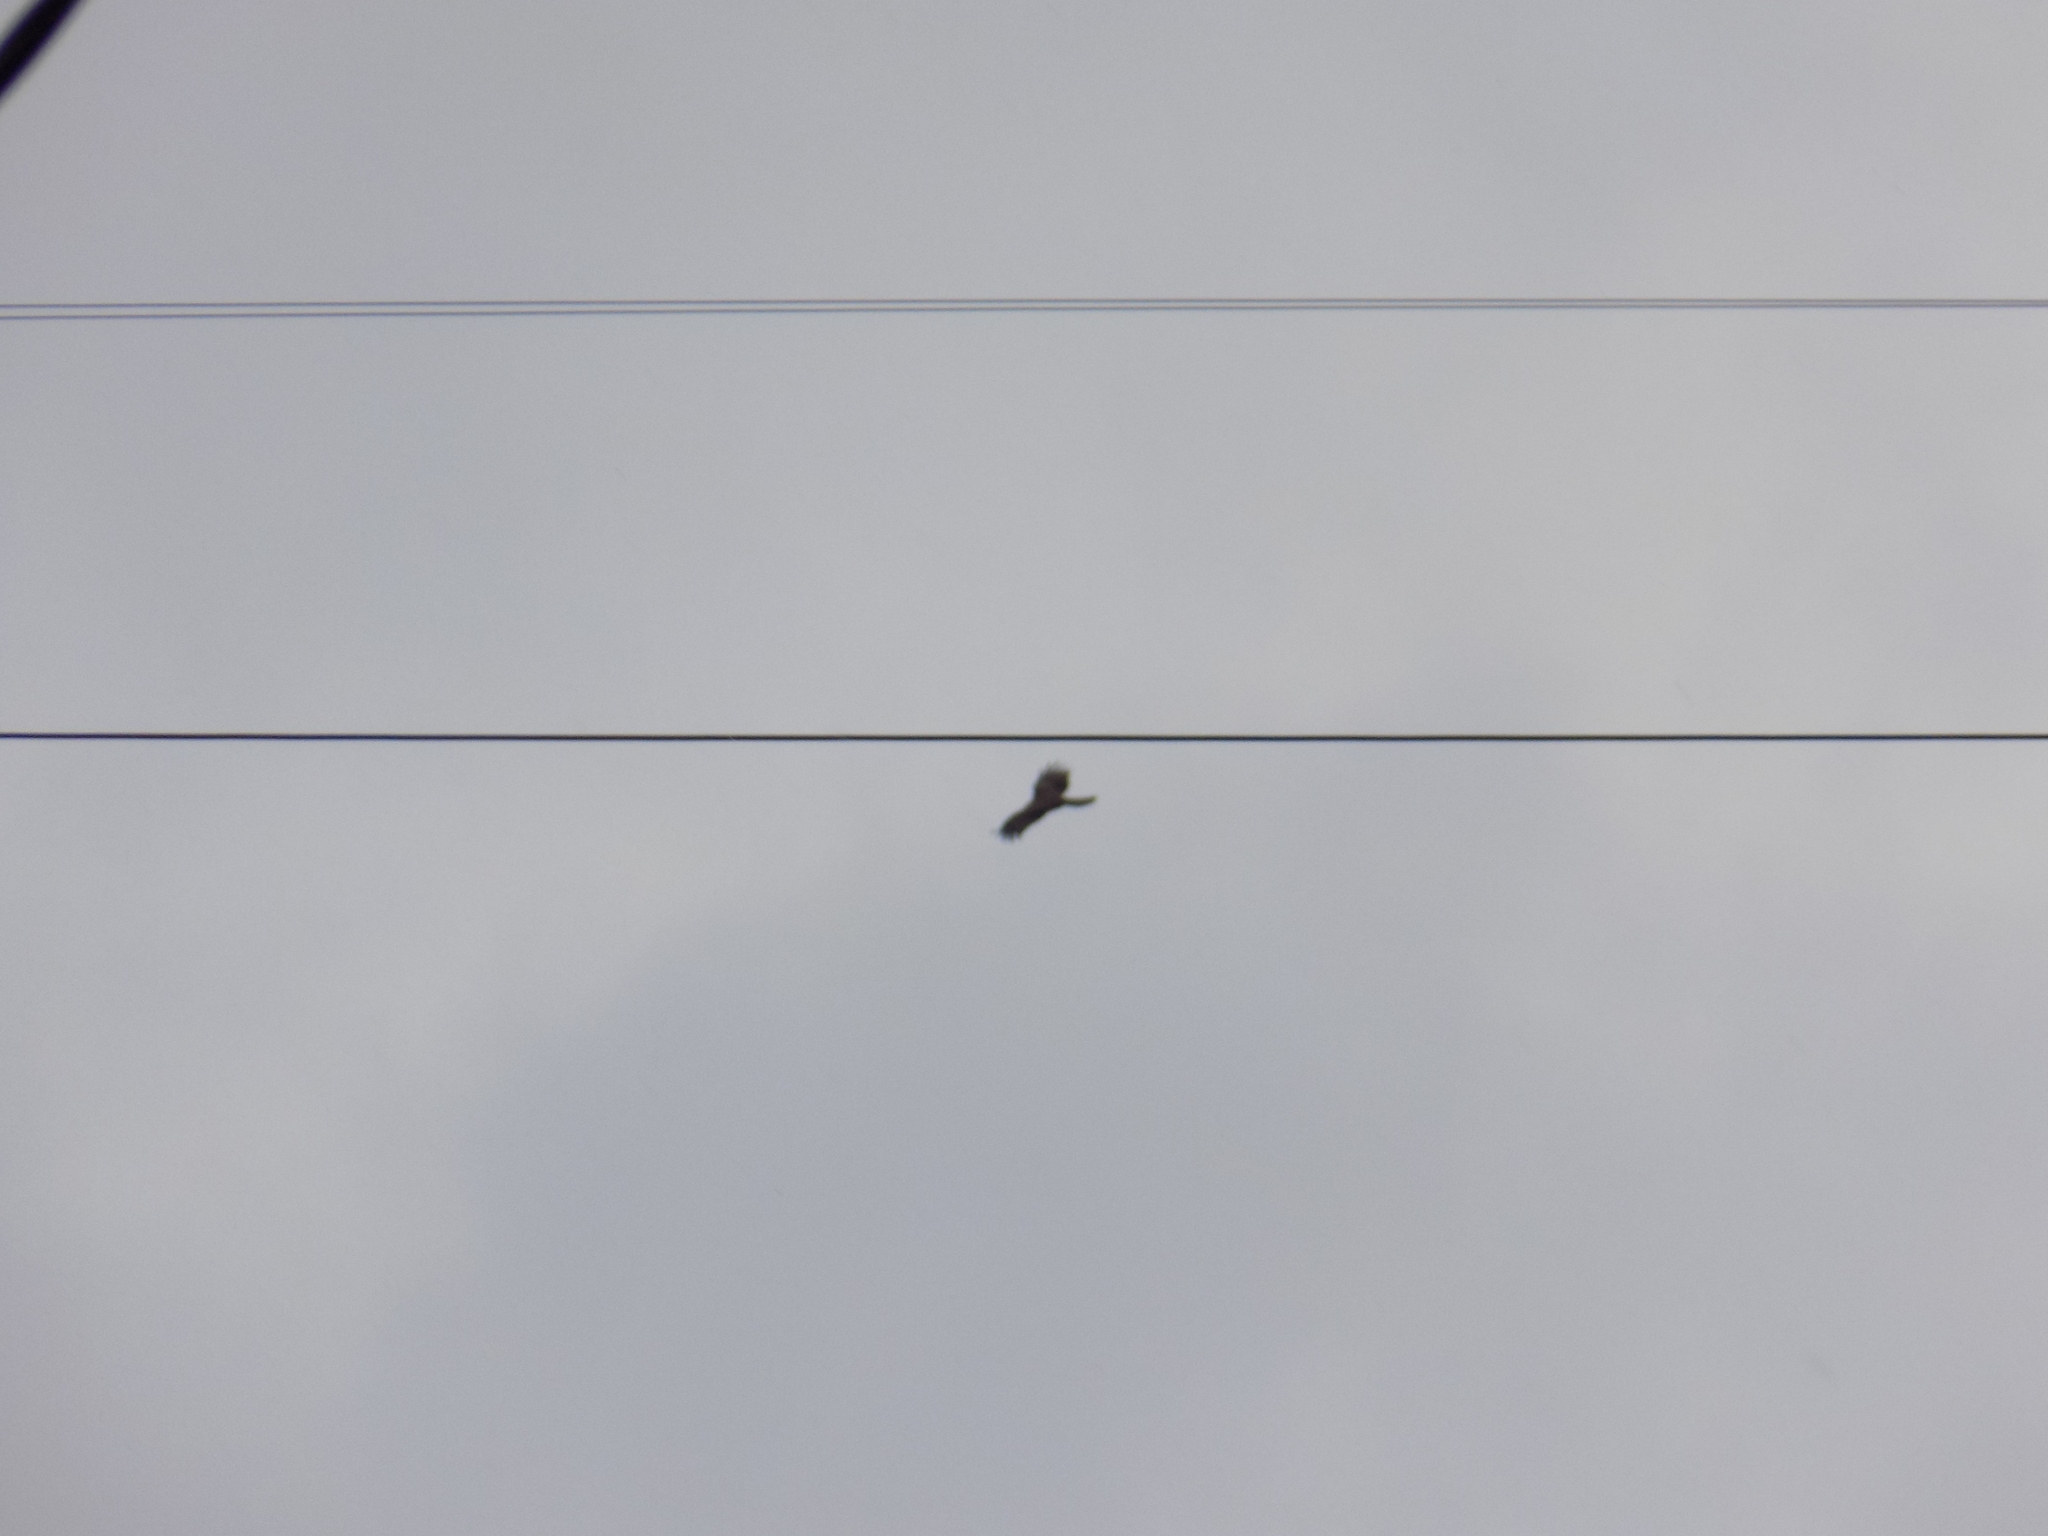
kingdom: Animalia
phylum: Chordata
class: Aves
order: Accipitriformes
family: Accipitridae
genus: Milvus
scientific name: Milvus migrans
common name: Black kite
